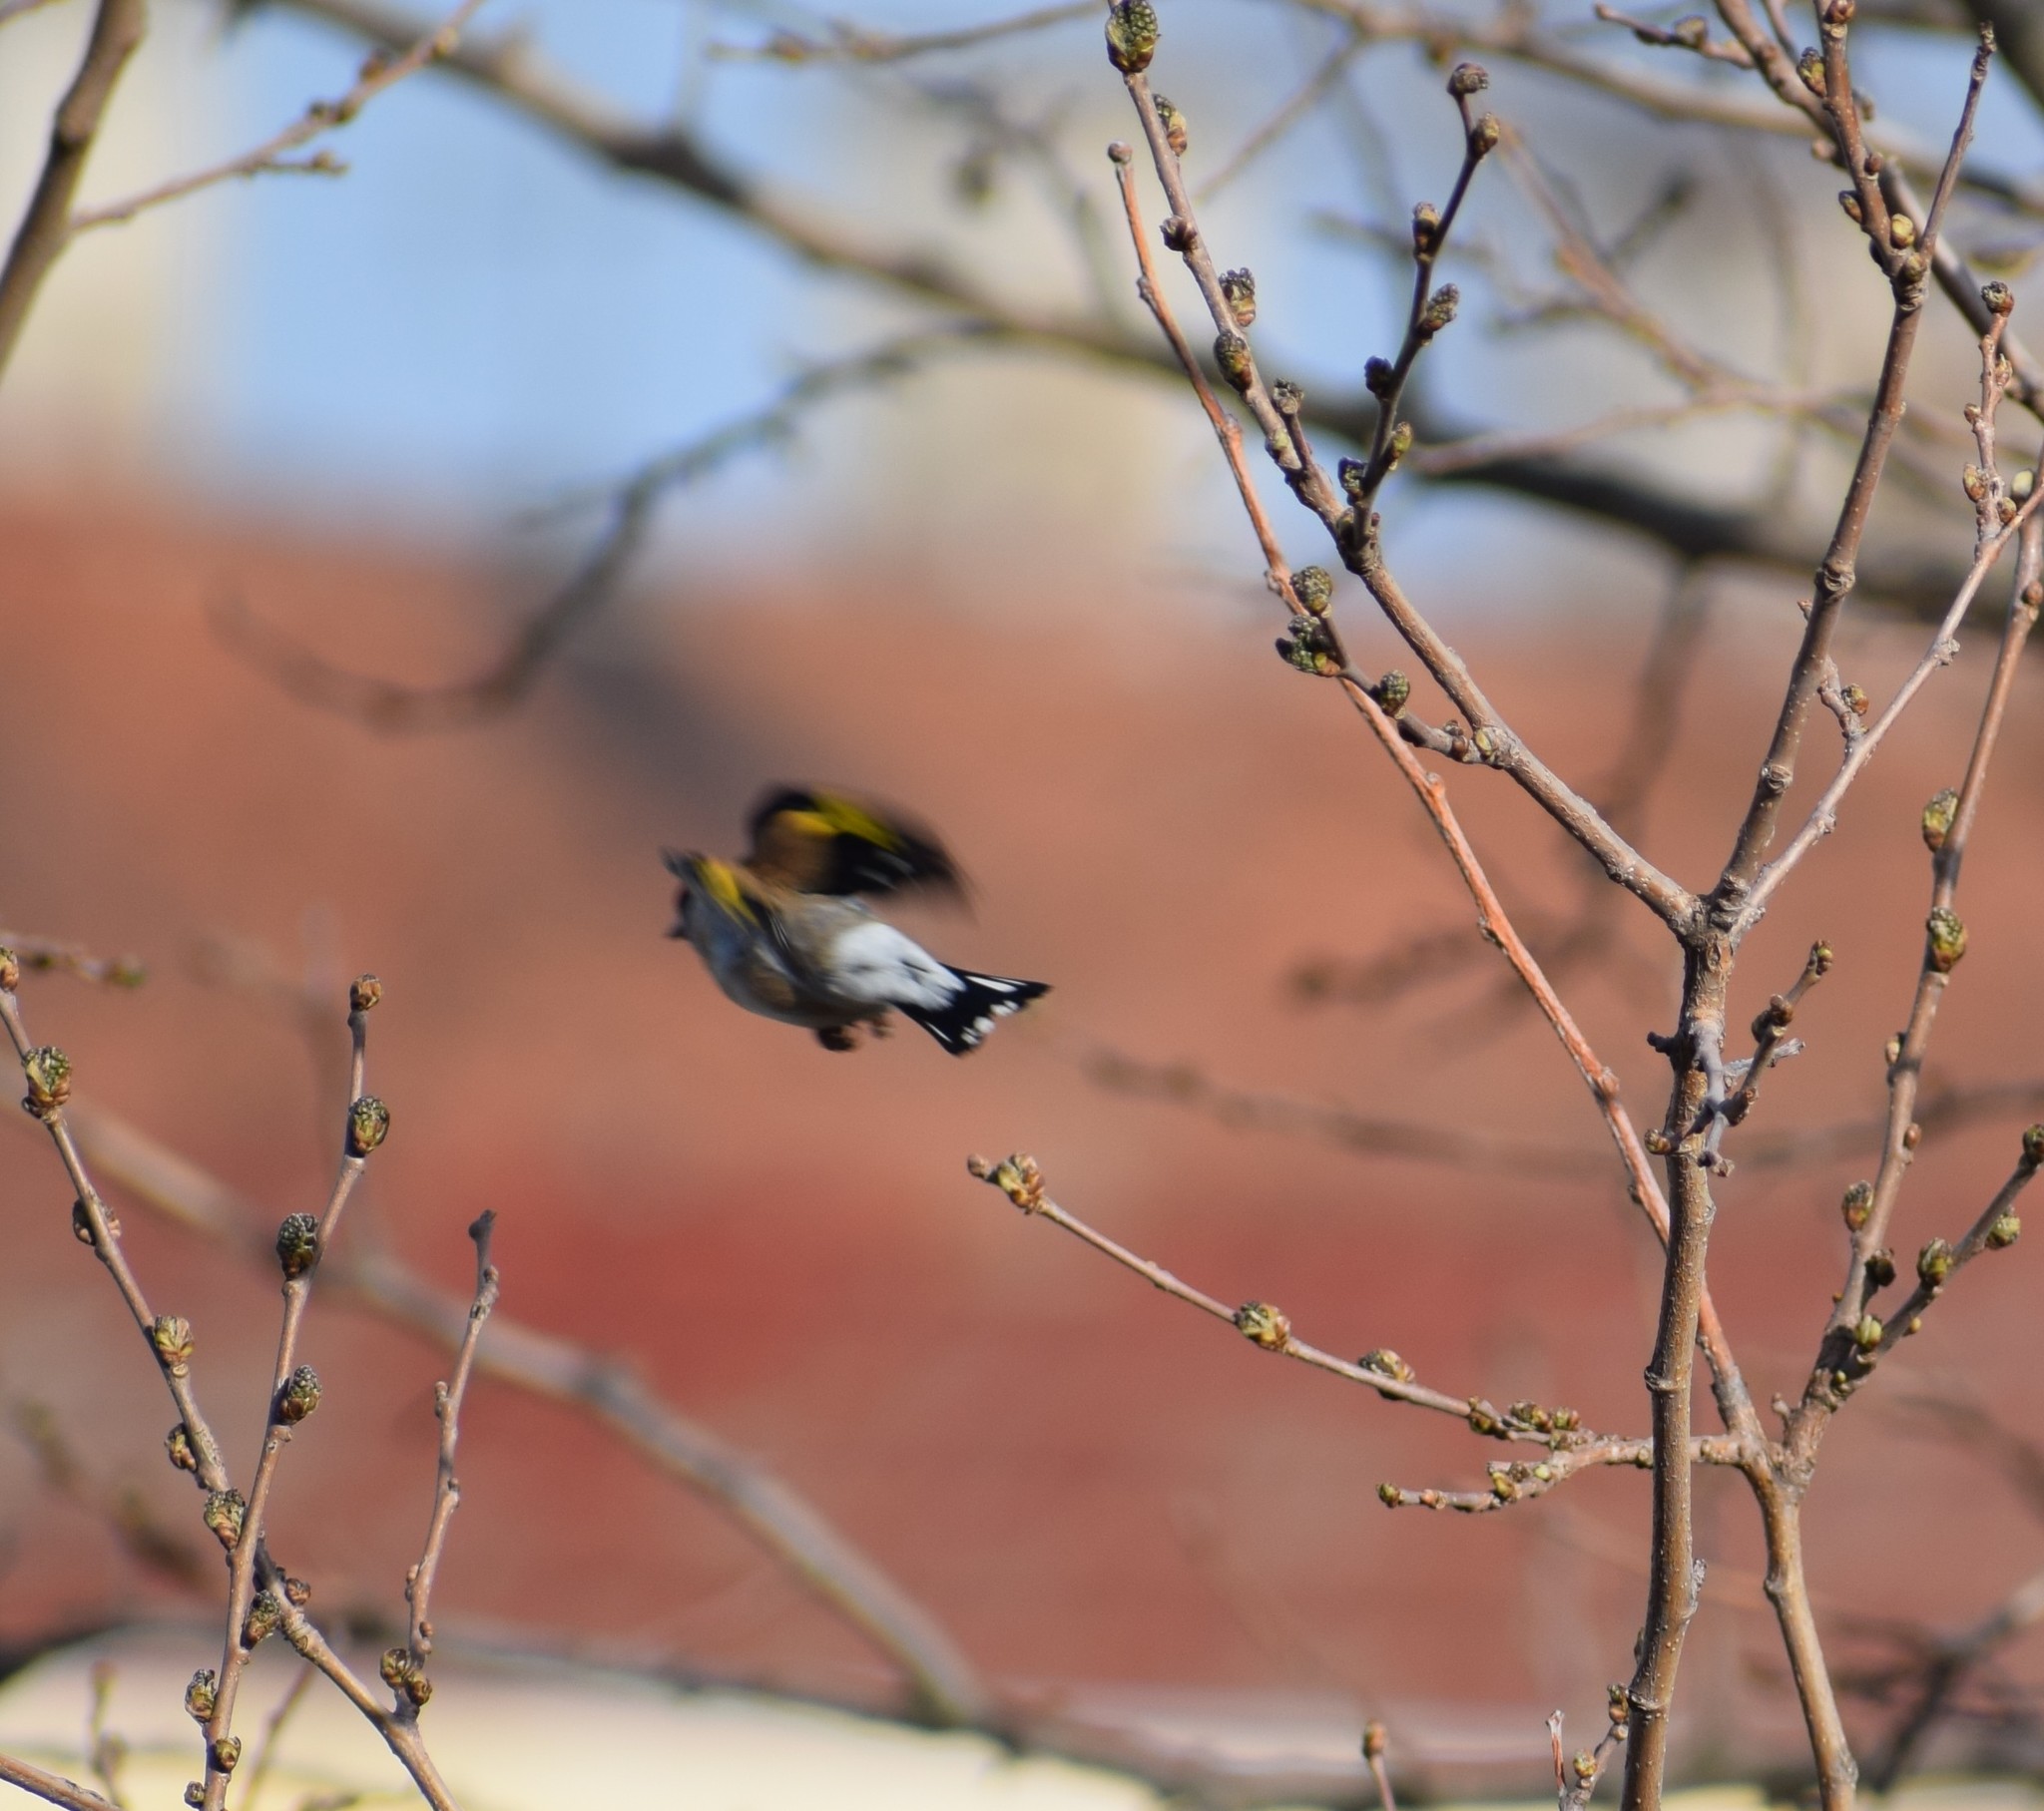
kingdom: Animalia
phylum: Chordata
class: Aves
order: Passeriformes
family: Fringillidae
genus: Carduelis
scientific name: Carduelis carduelis
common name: European goldfinch
